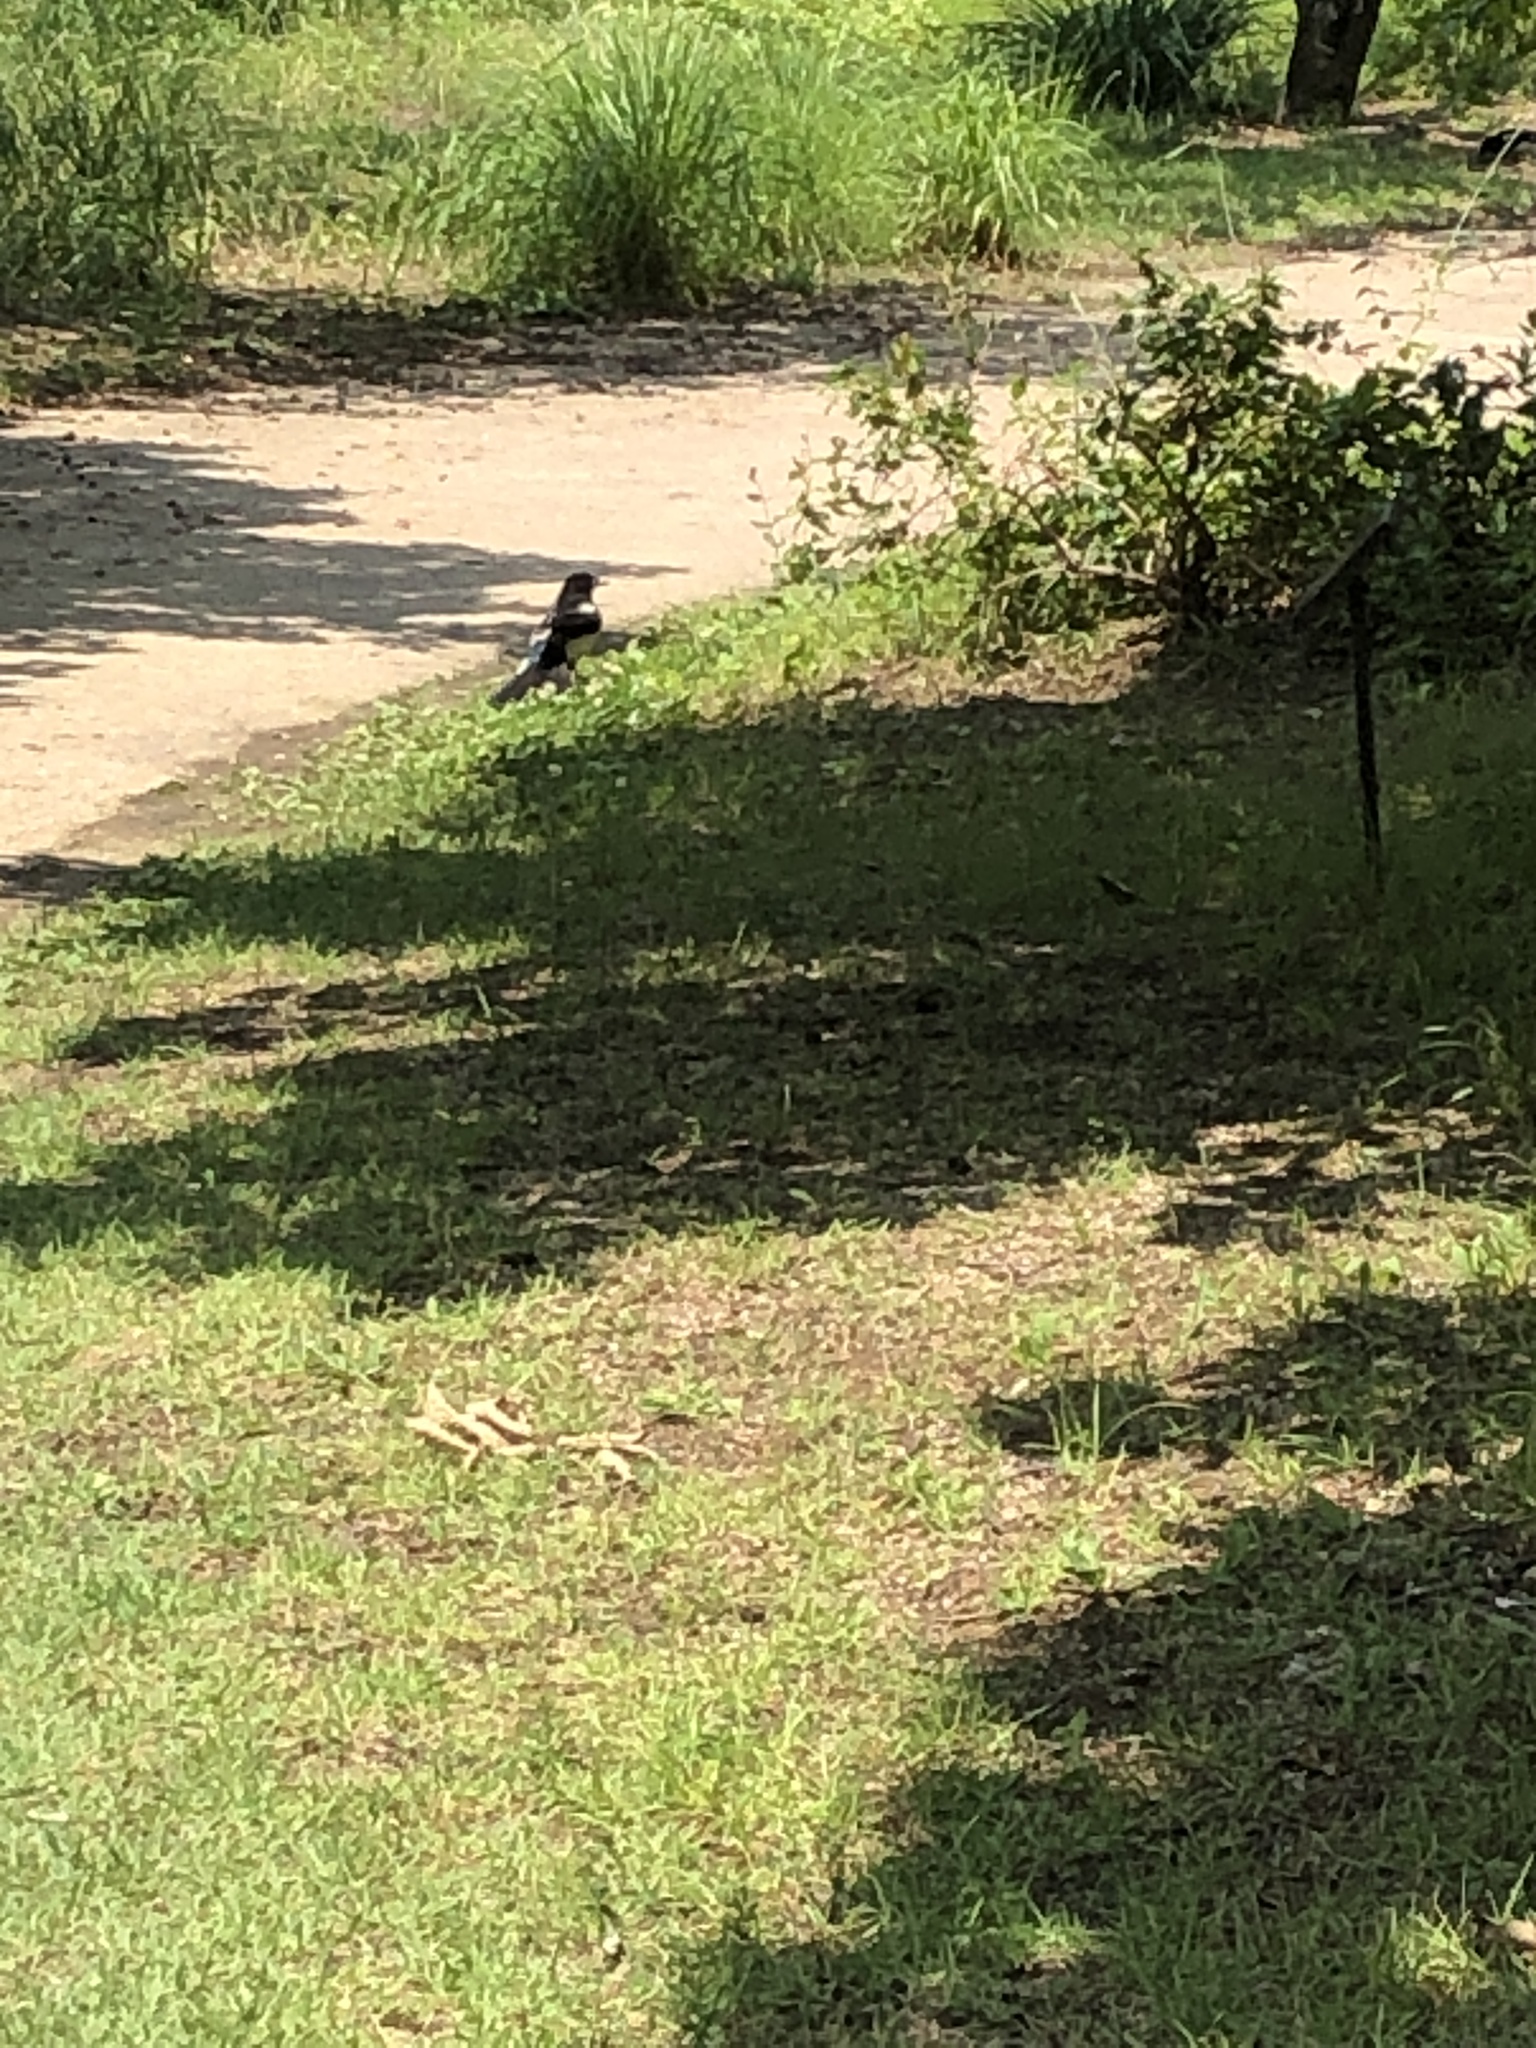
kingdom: Animalia
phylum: Chordata
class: Aves
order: Passeriformes
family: Corvidae
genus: Pica
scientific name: Pica serica
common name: Oriental magpie
